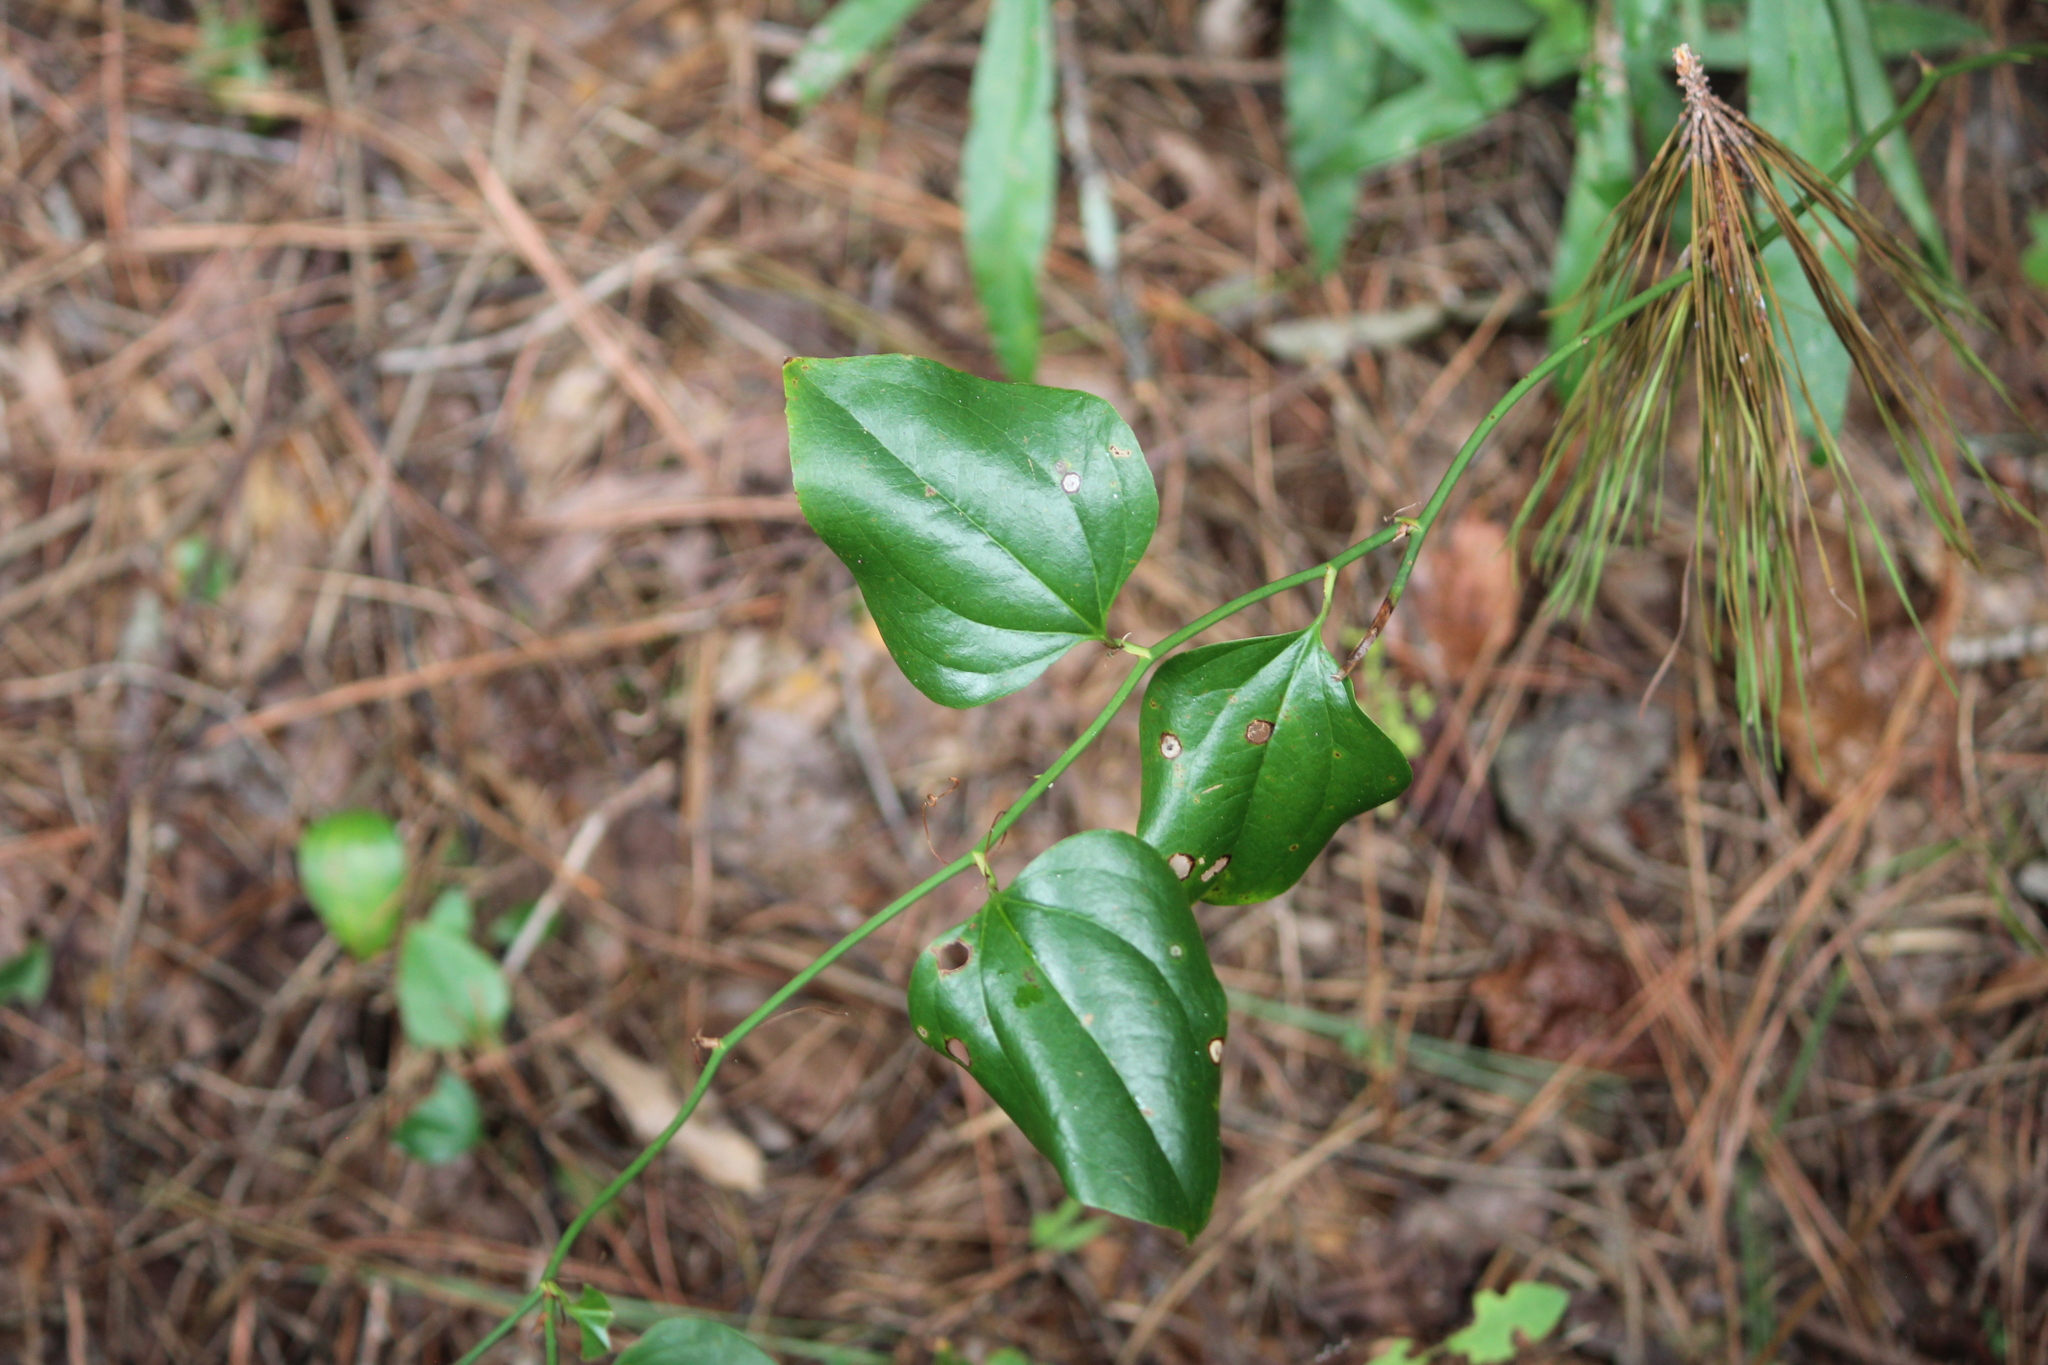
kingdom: Plantae
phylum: Tracheophyta
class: Liliopsida
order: Liliales
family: Smilacaceae
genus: Smilax
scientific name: Smilax rotundifolia
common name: Bullbriar
